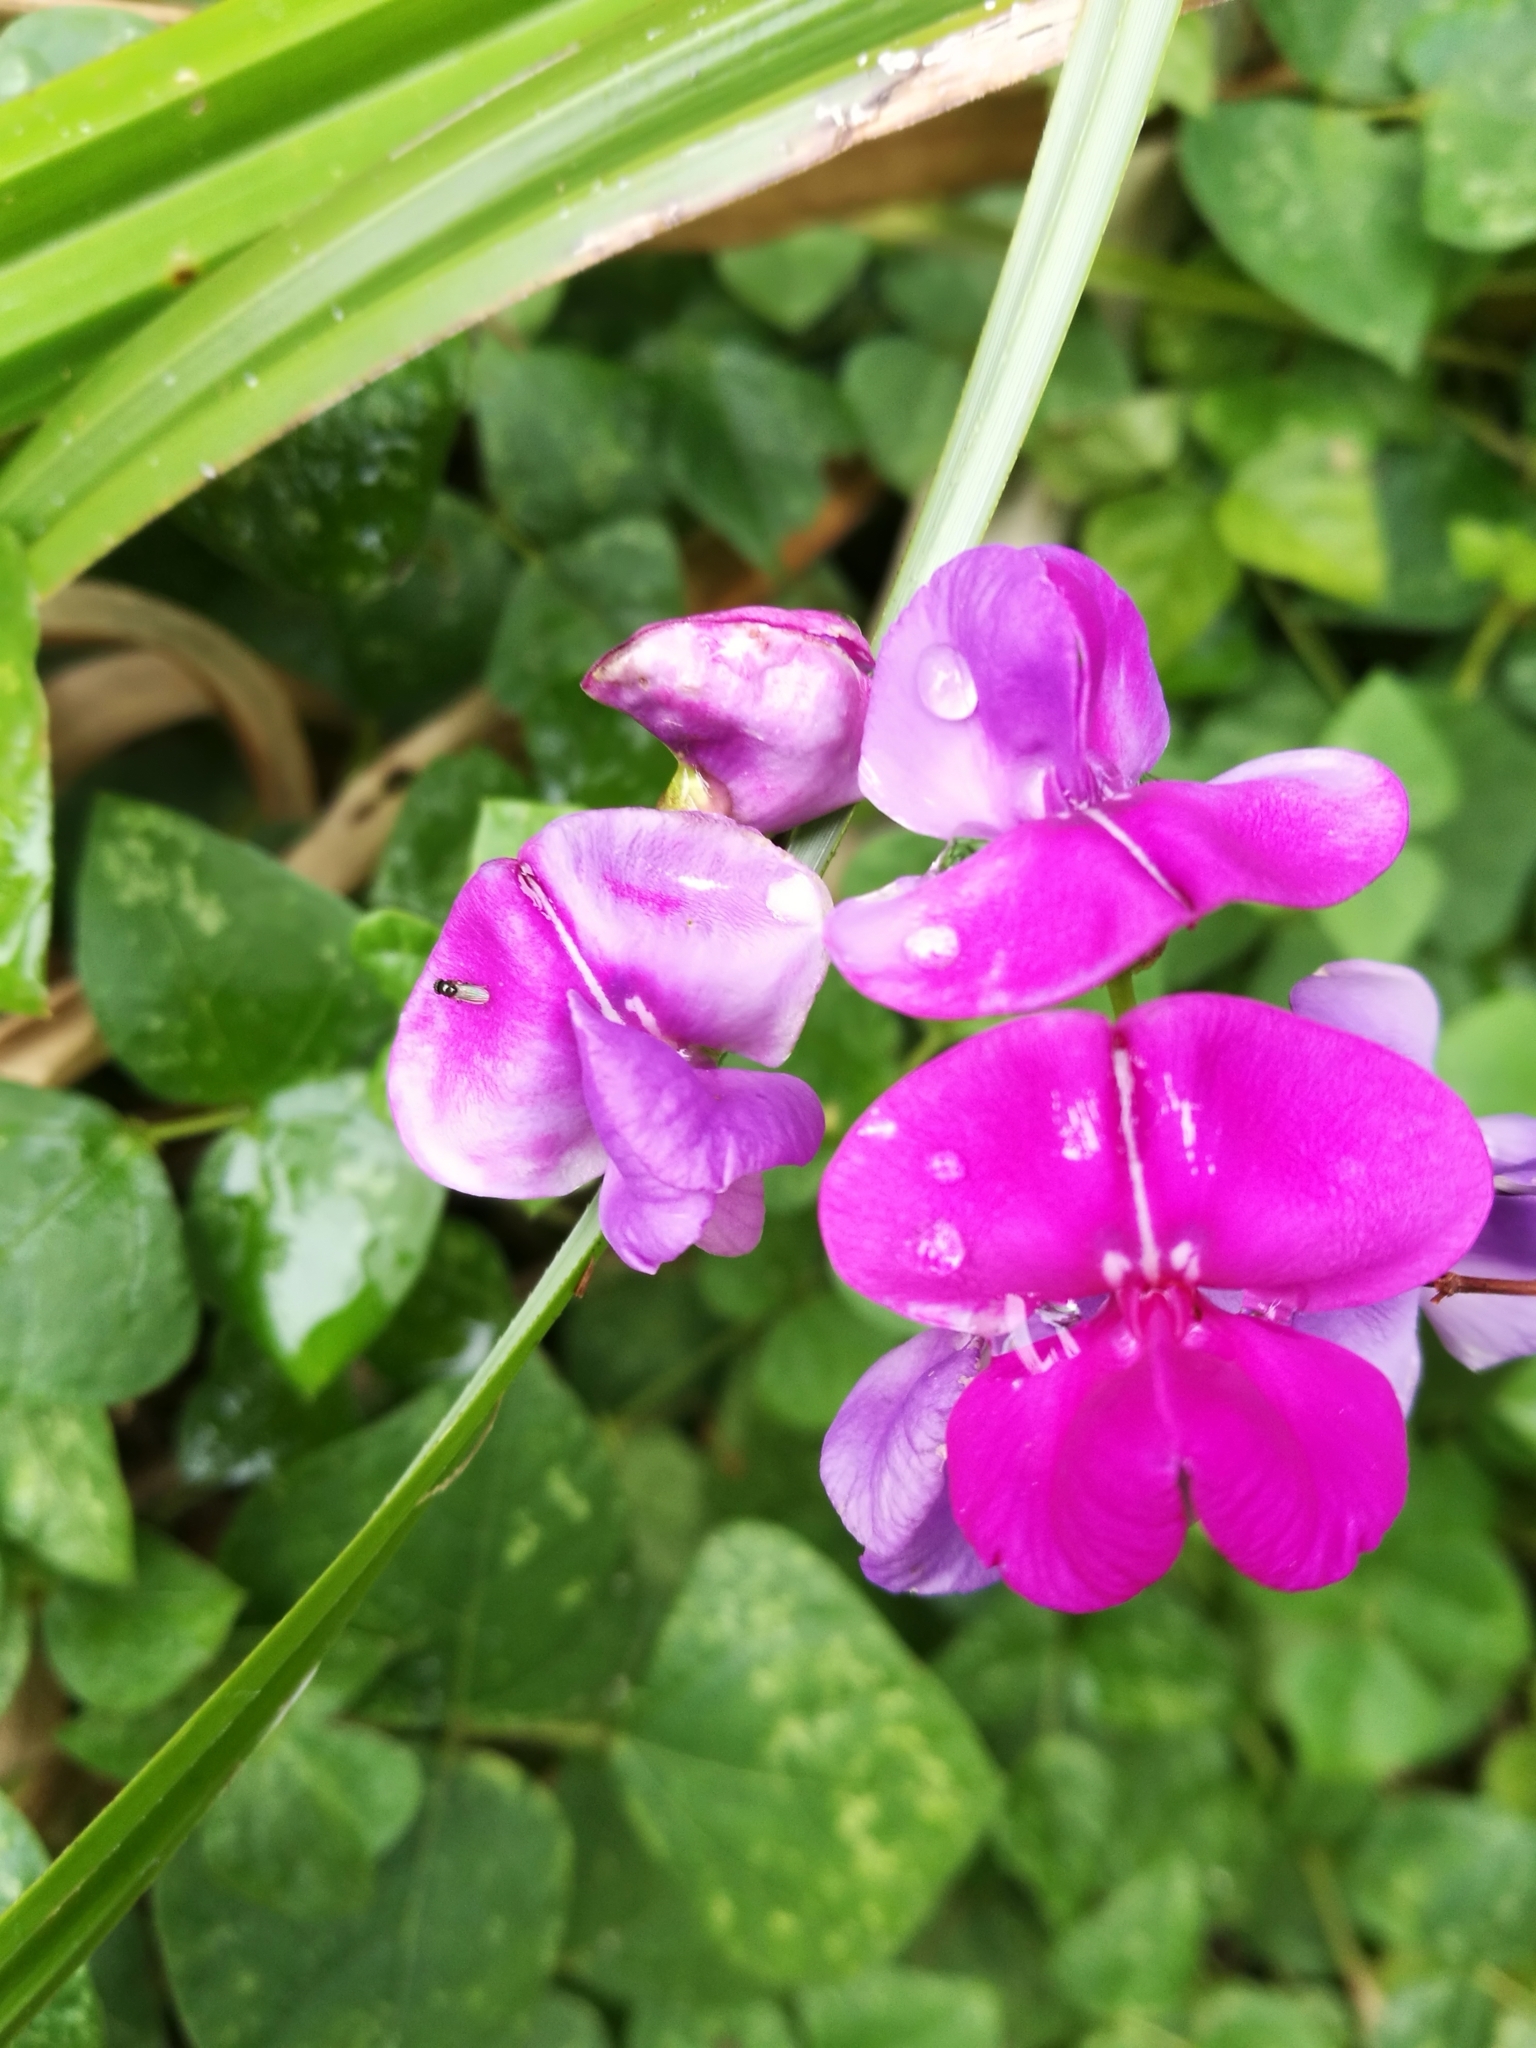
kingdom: Plantae
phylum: Tracheophyta
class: Magnoliopsida
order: Fabales
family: Fabaceae
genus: Dipogon
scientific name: Dipogon lignosus
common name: Okie bean
